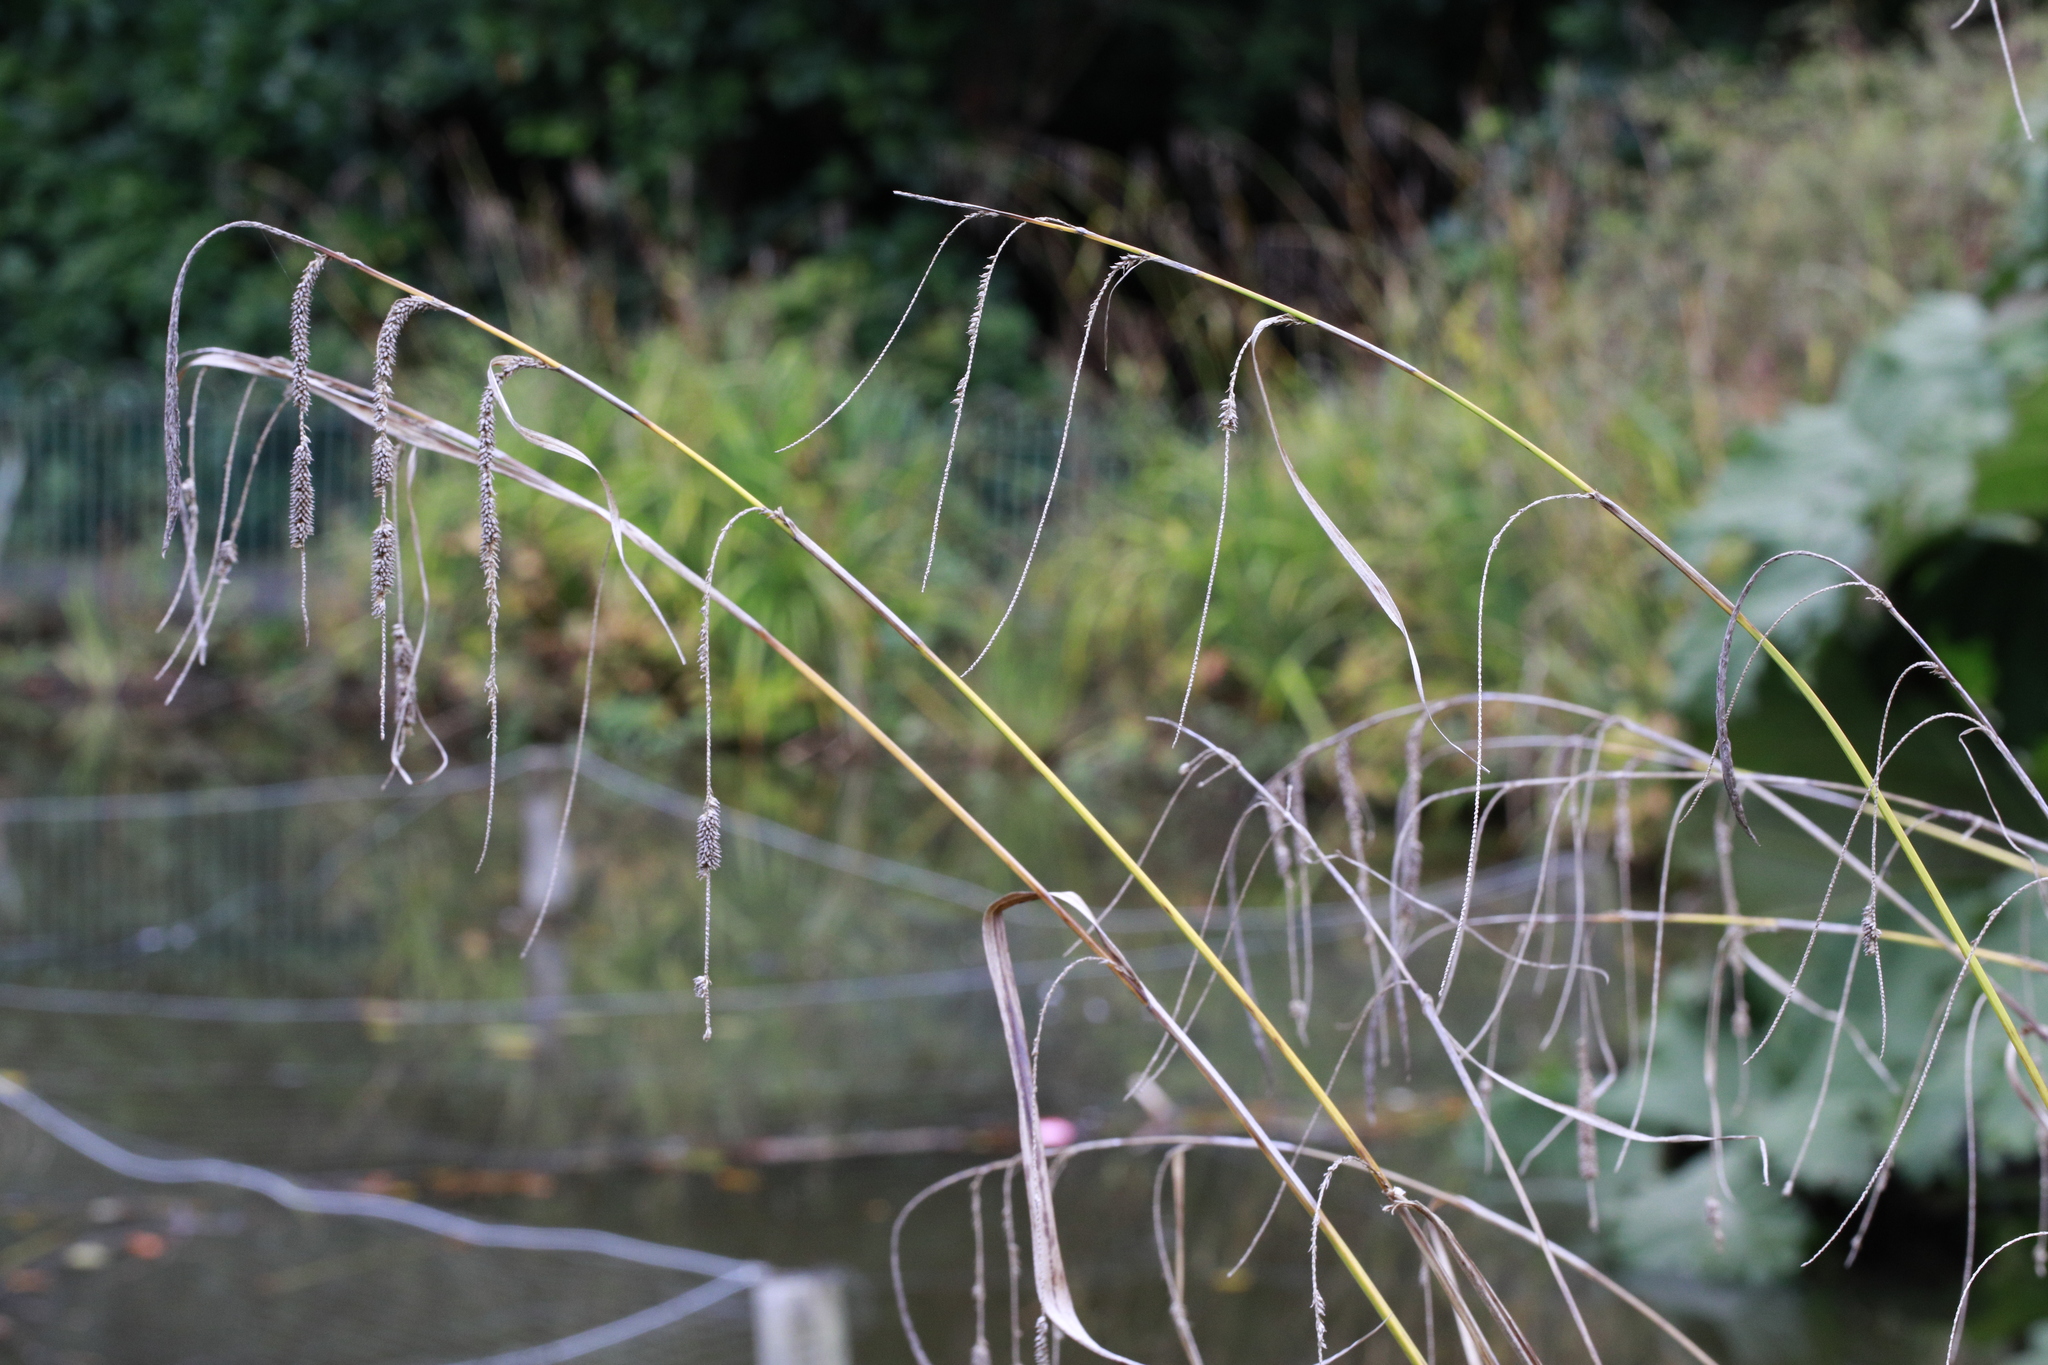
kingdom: Plantae
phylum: Tracheophyta
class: Liliopsida
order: Poales
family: Cyperaceae
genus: Carex
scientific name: Carex pendula
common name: Pendulous sedge
